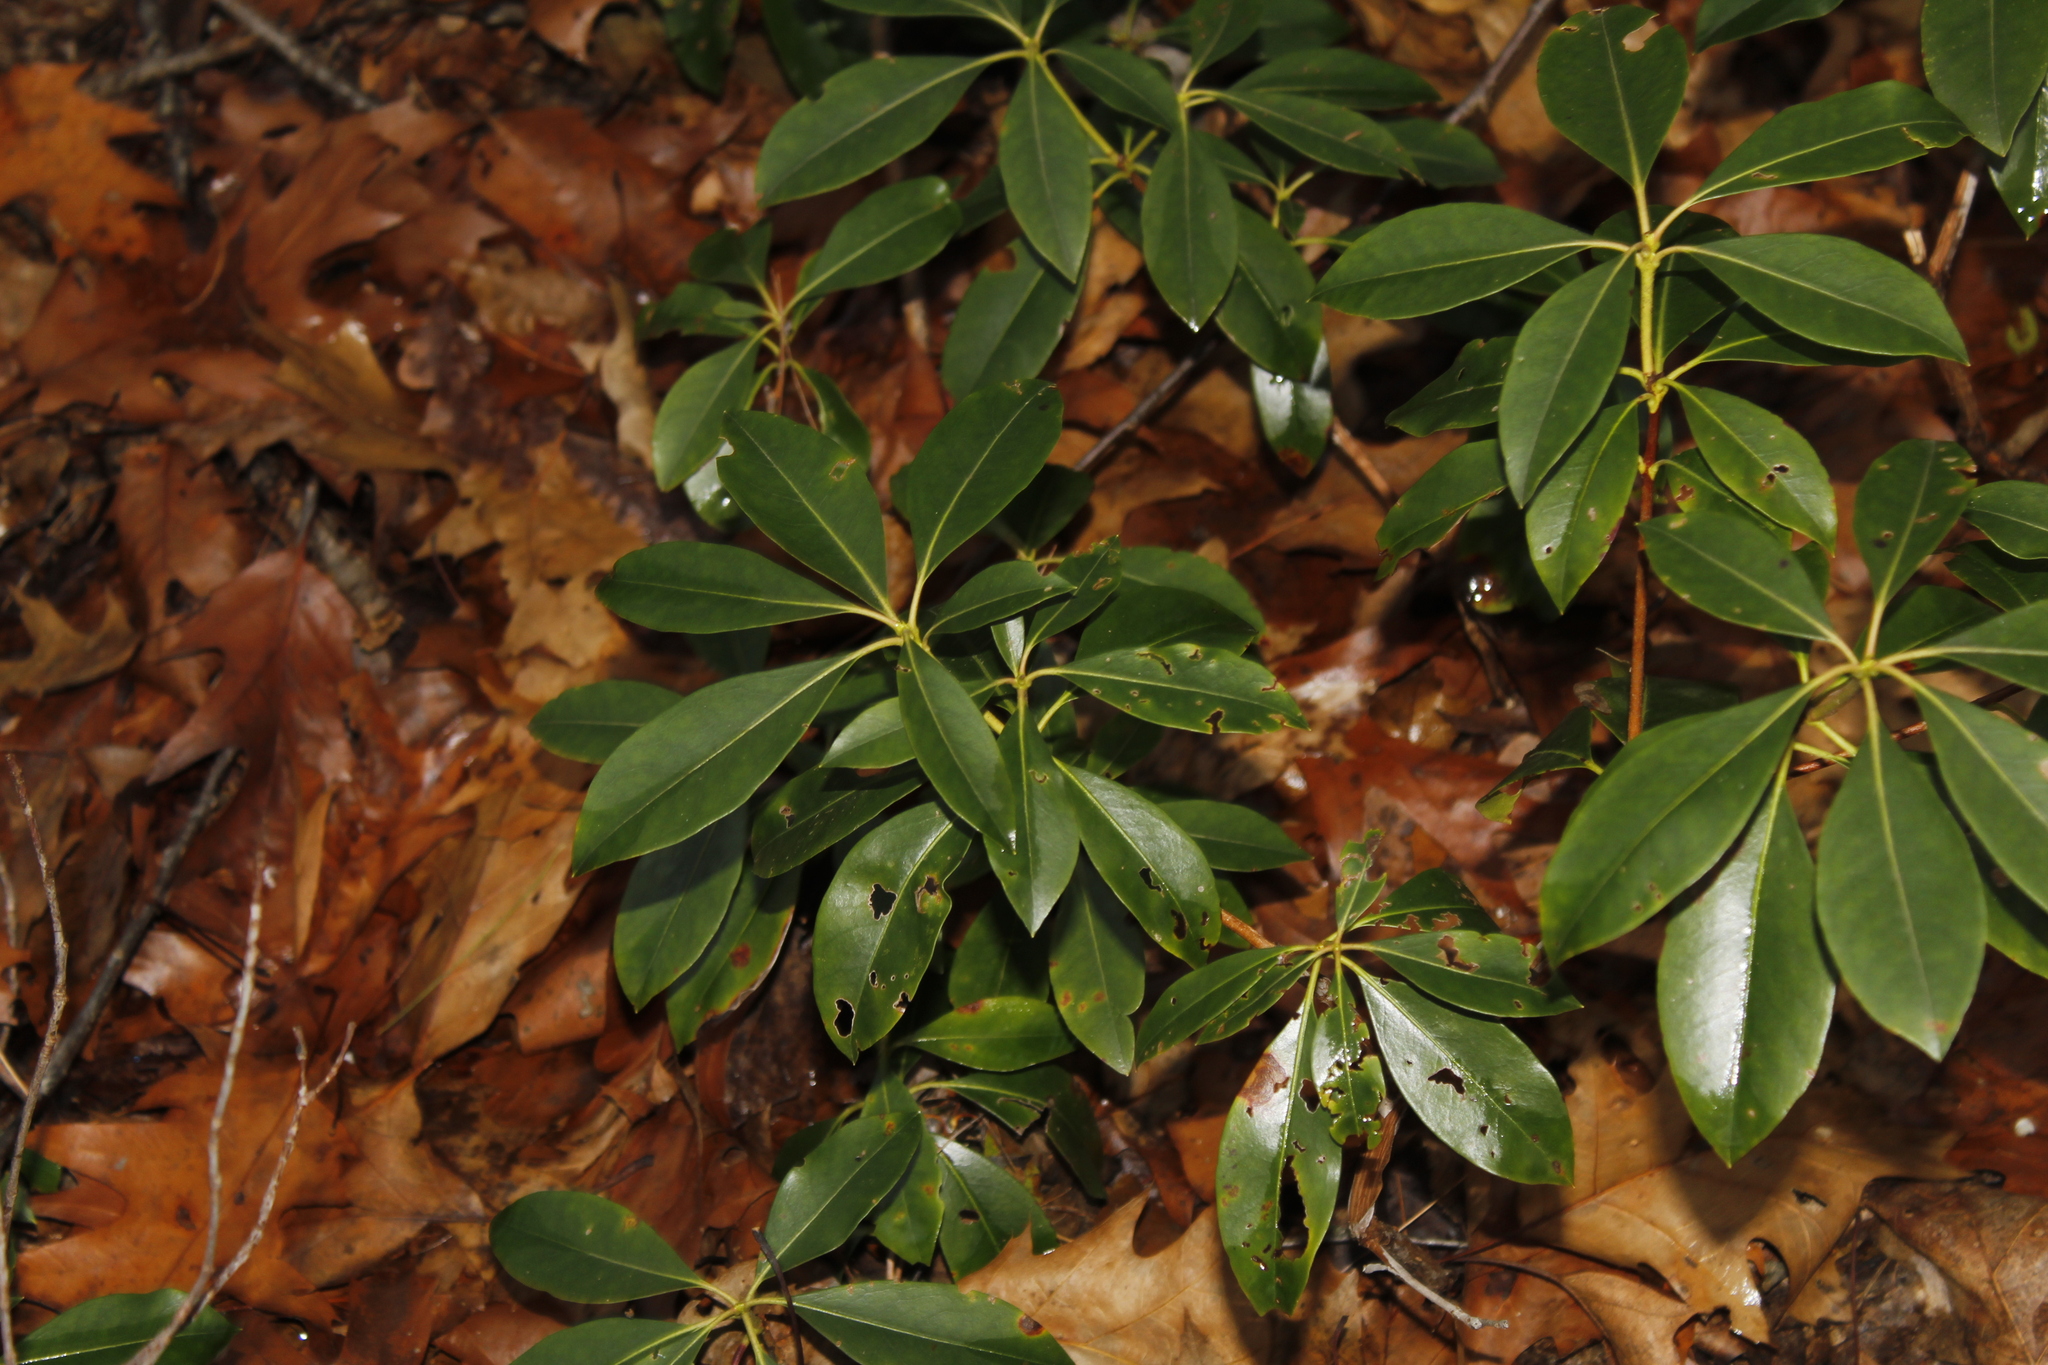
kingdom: Plantae
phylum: Tracheophyta
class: Magnoliopsida
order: Ericales
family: Ericaceae
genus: Kalmia
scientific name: Kalmia latifolia
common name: Mountain-laurel
